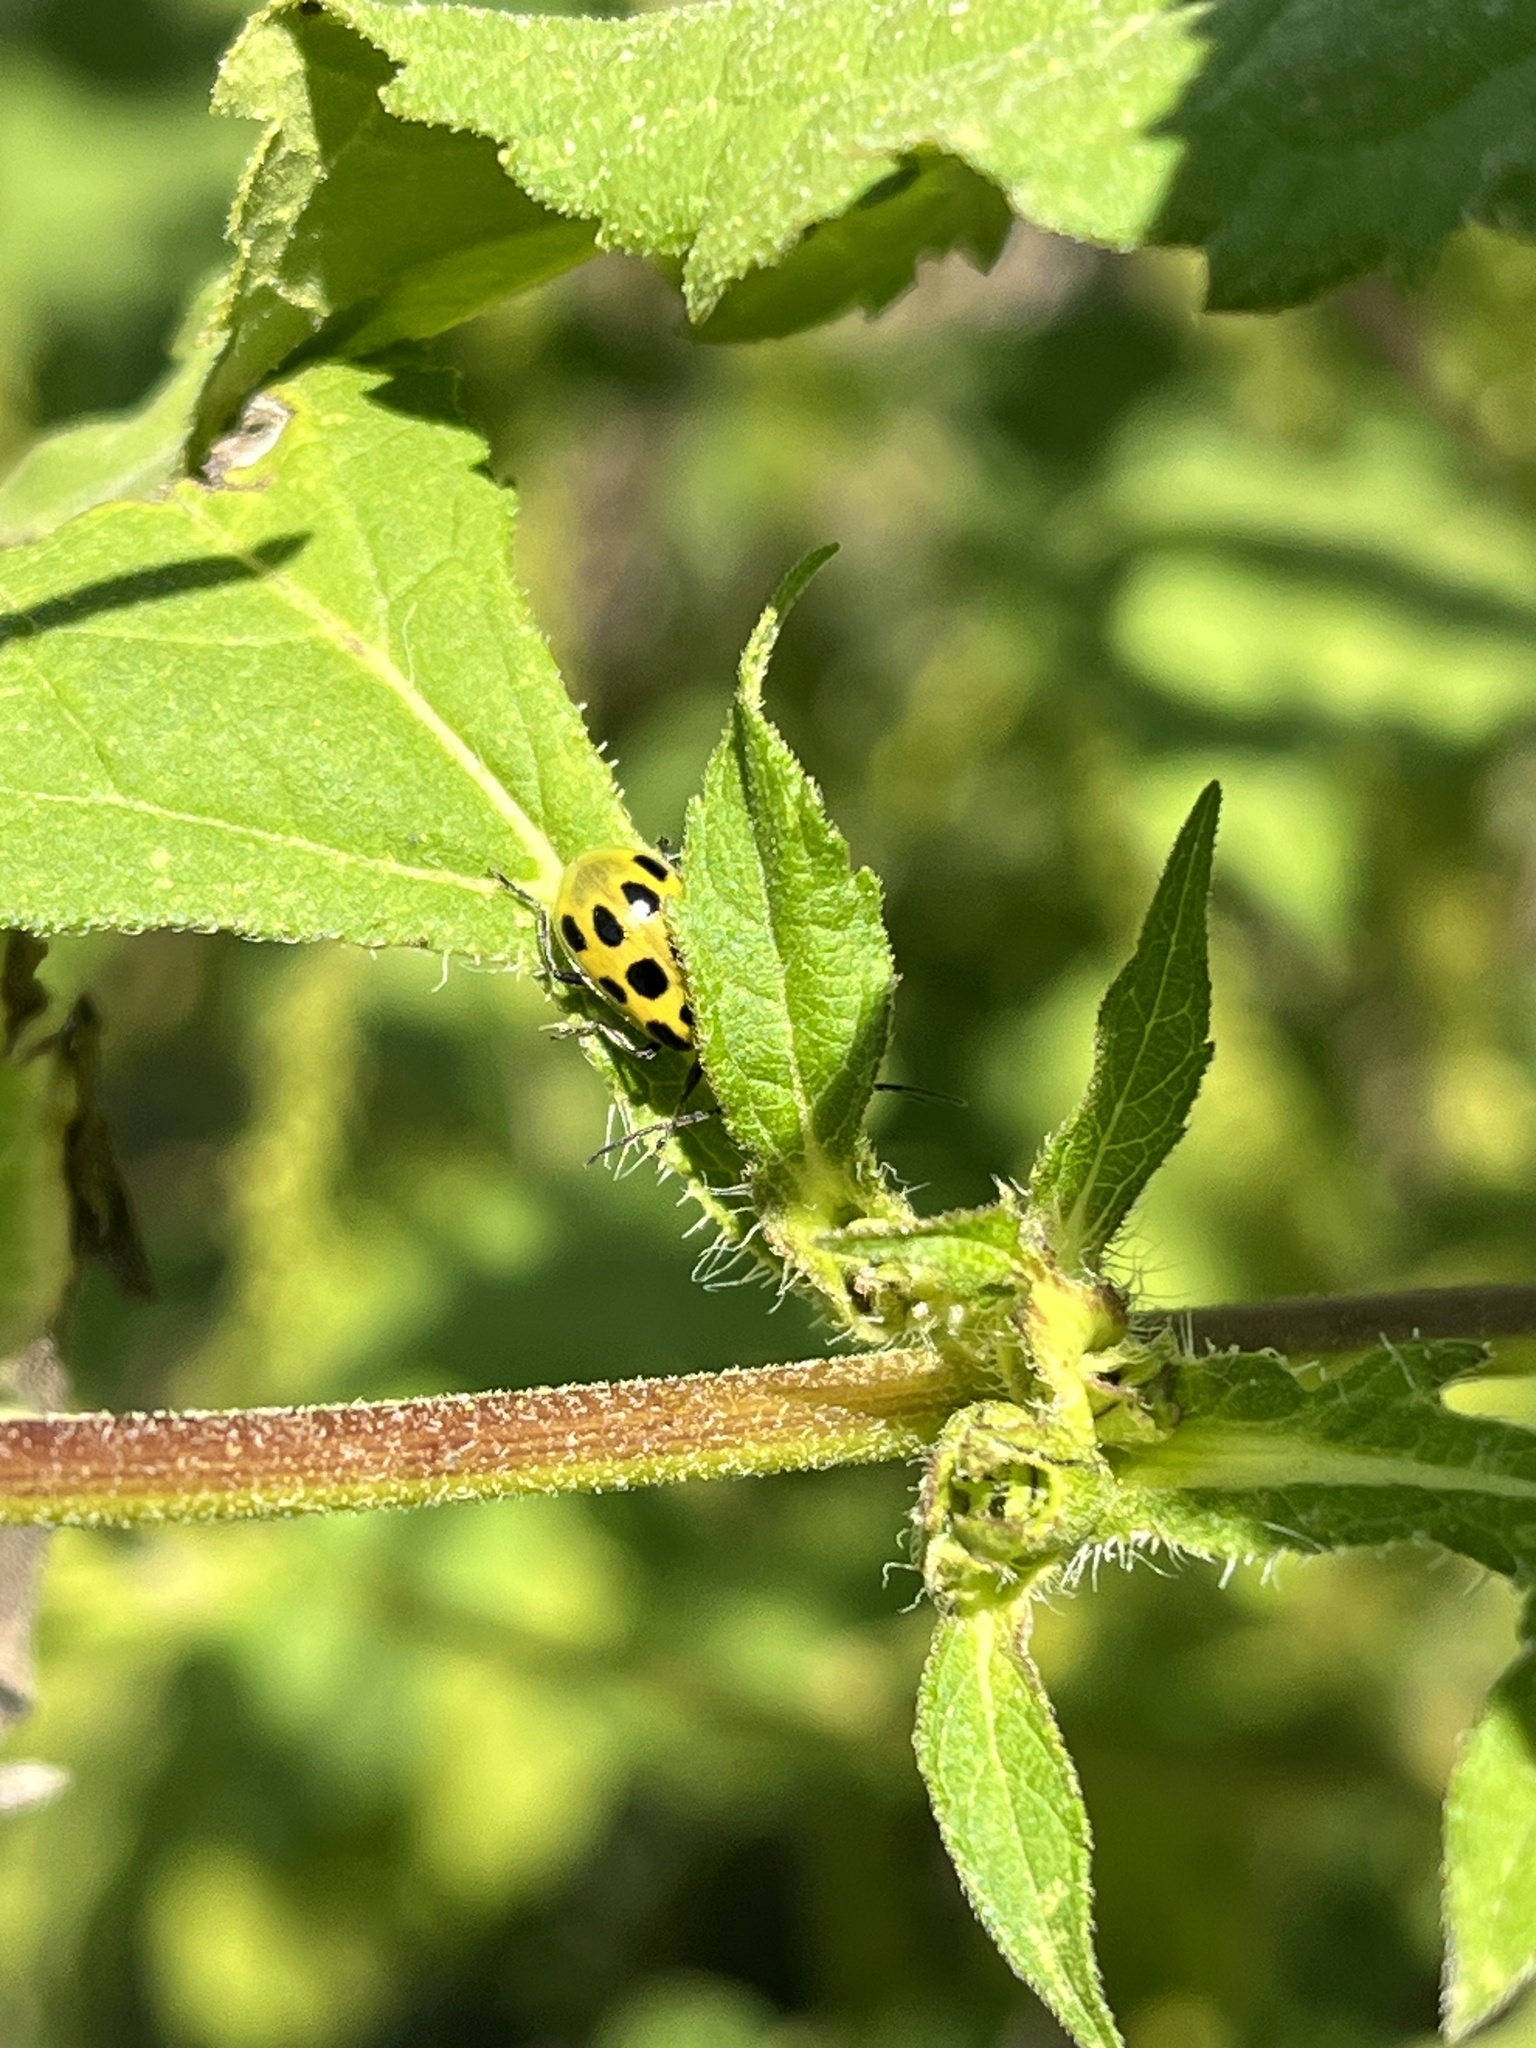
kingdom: Animalia
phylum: Arthropoda
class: Insecta
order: Coleoptera
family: Chrysomelidae
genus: Diabrotica
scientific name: Diabrotica undecimpunctata
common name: Spotted cucumber beetle
